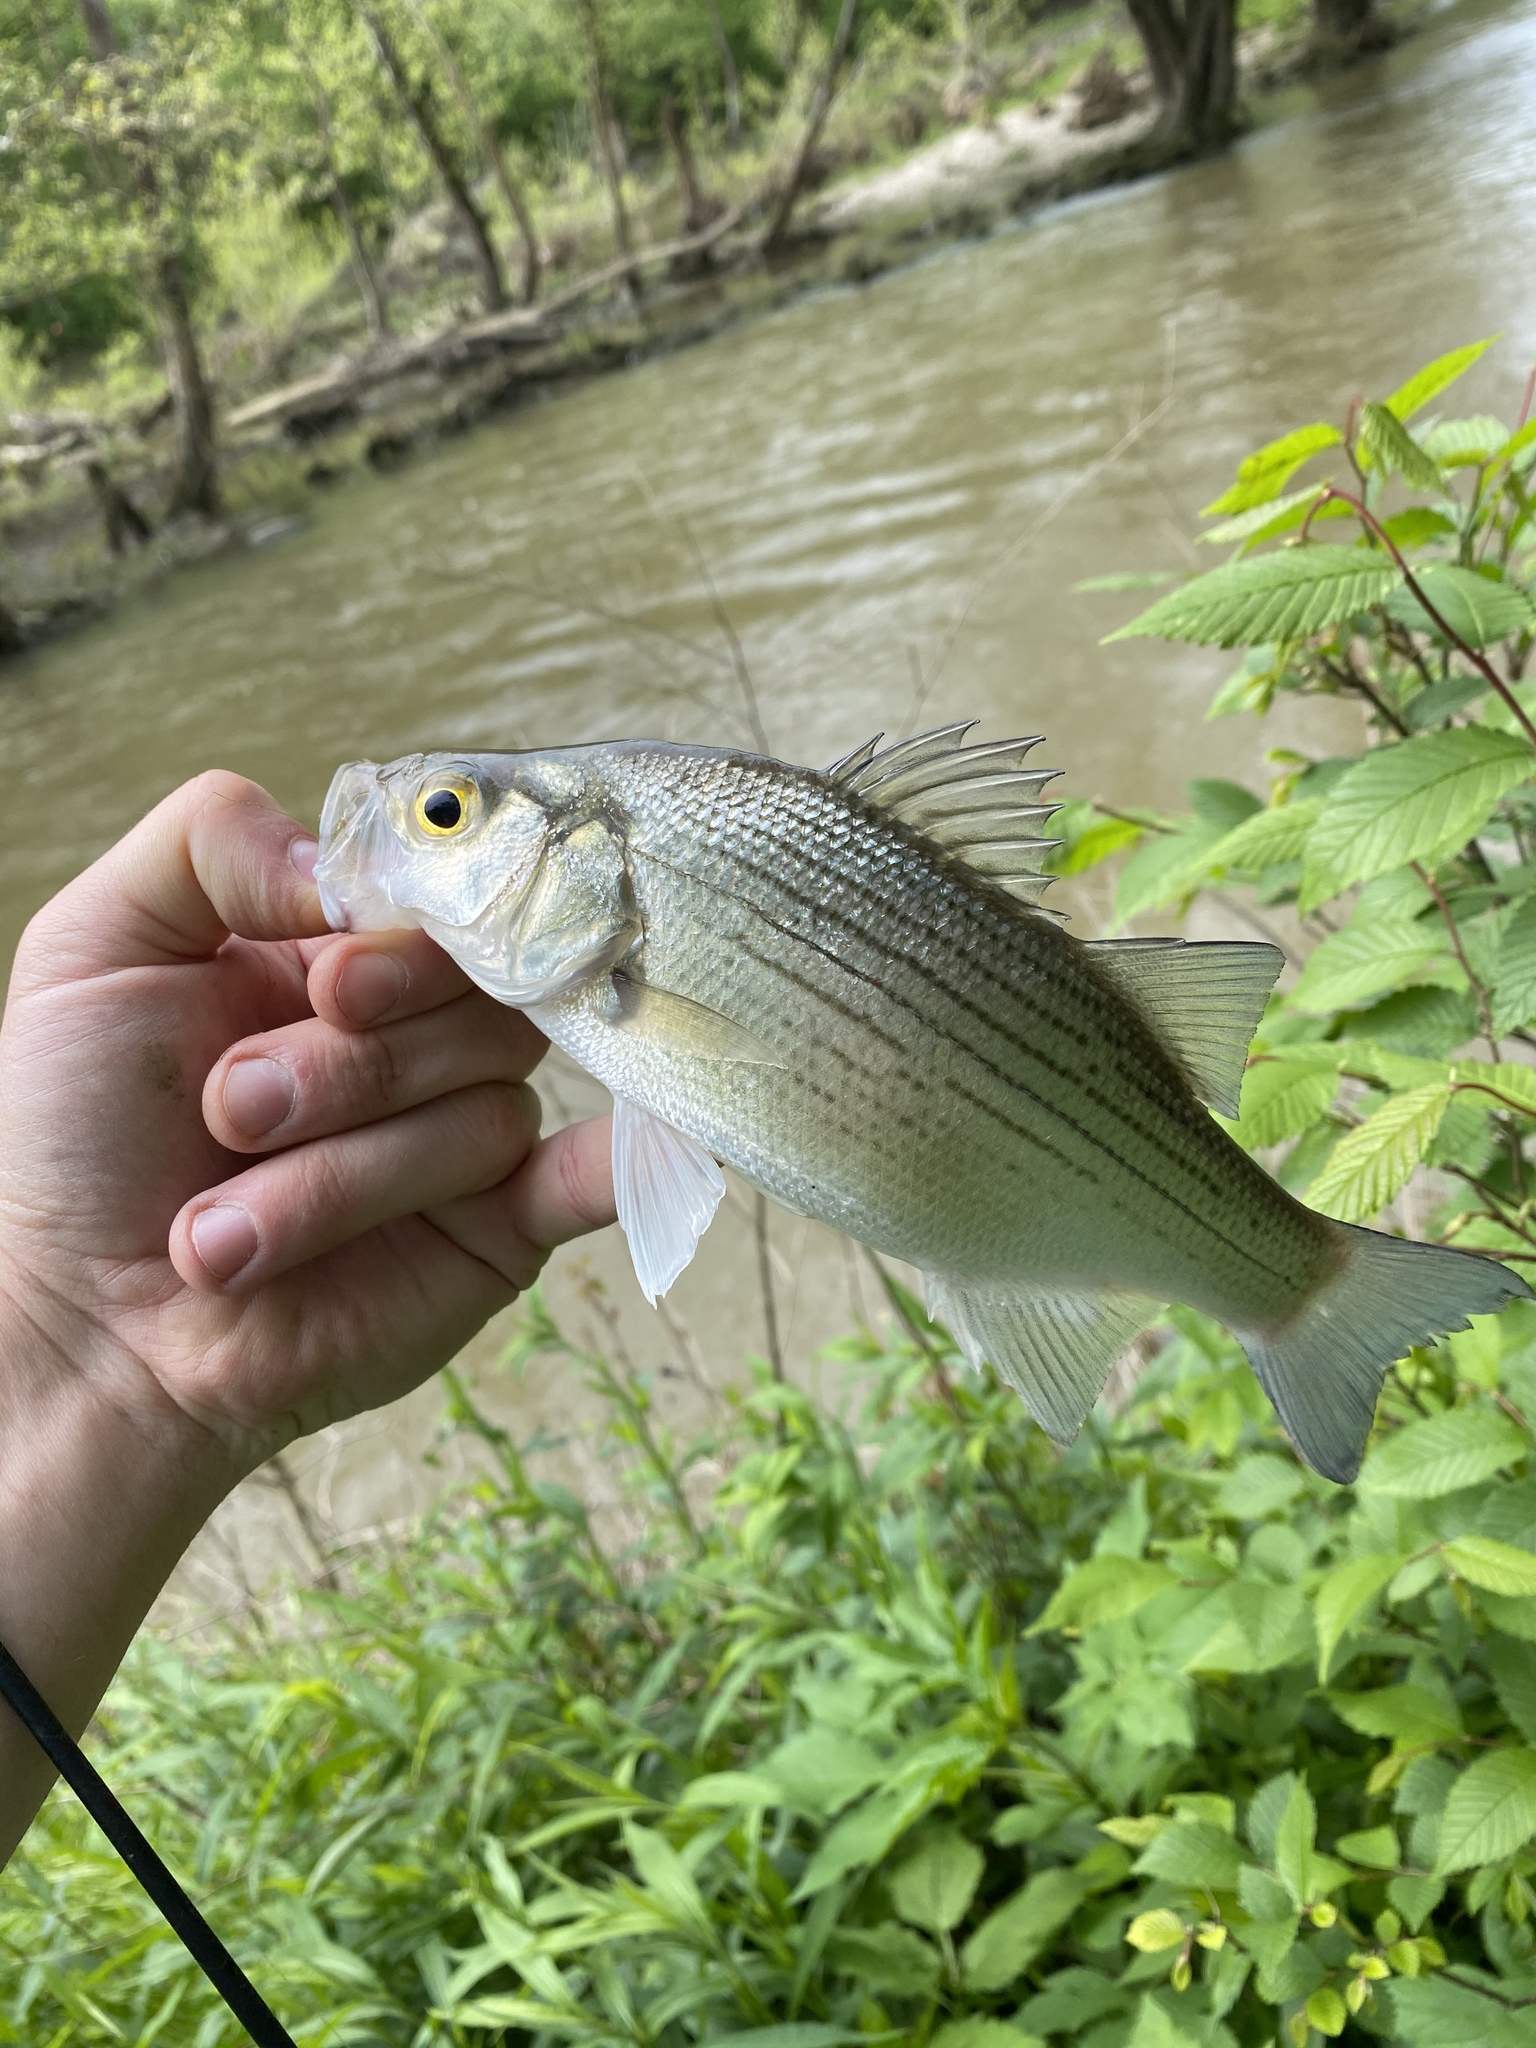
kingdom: Animalia
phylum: Chordata
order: Perciformes
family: Moronidae
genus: Morone
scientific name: Morone chrysops
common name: White bass
